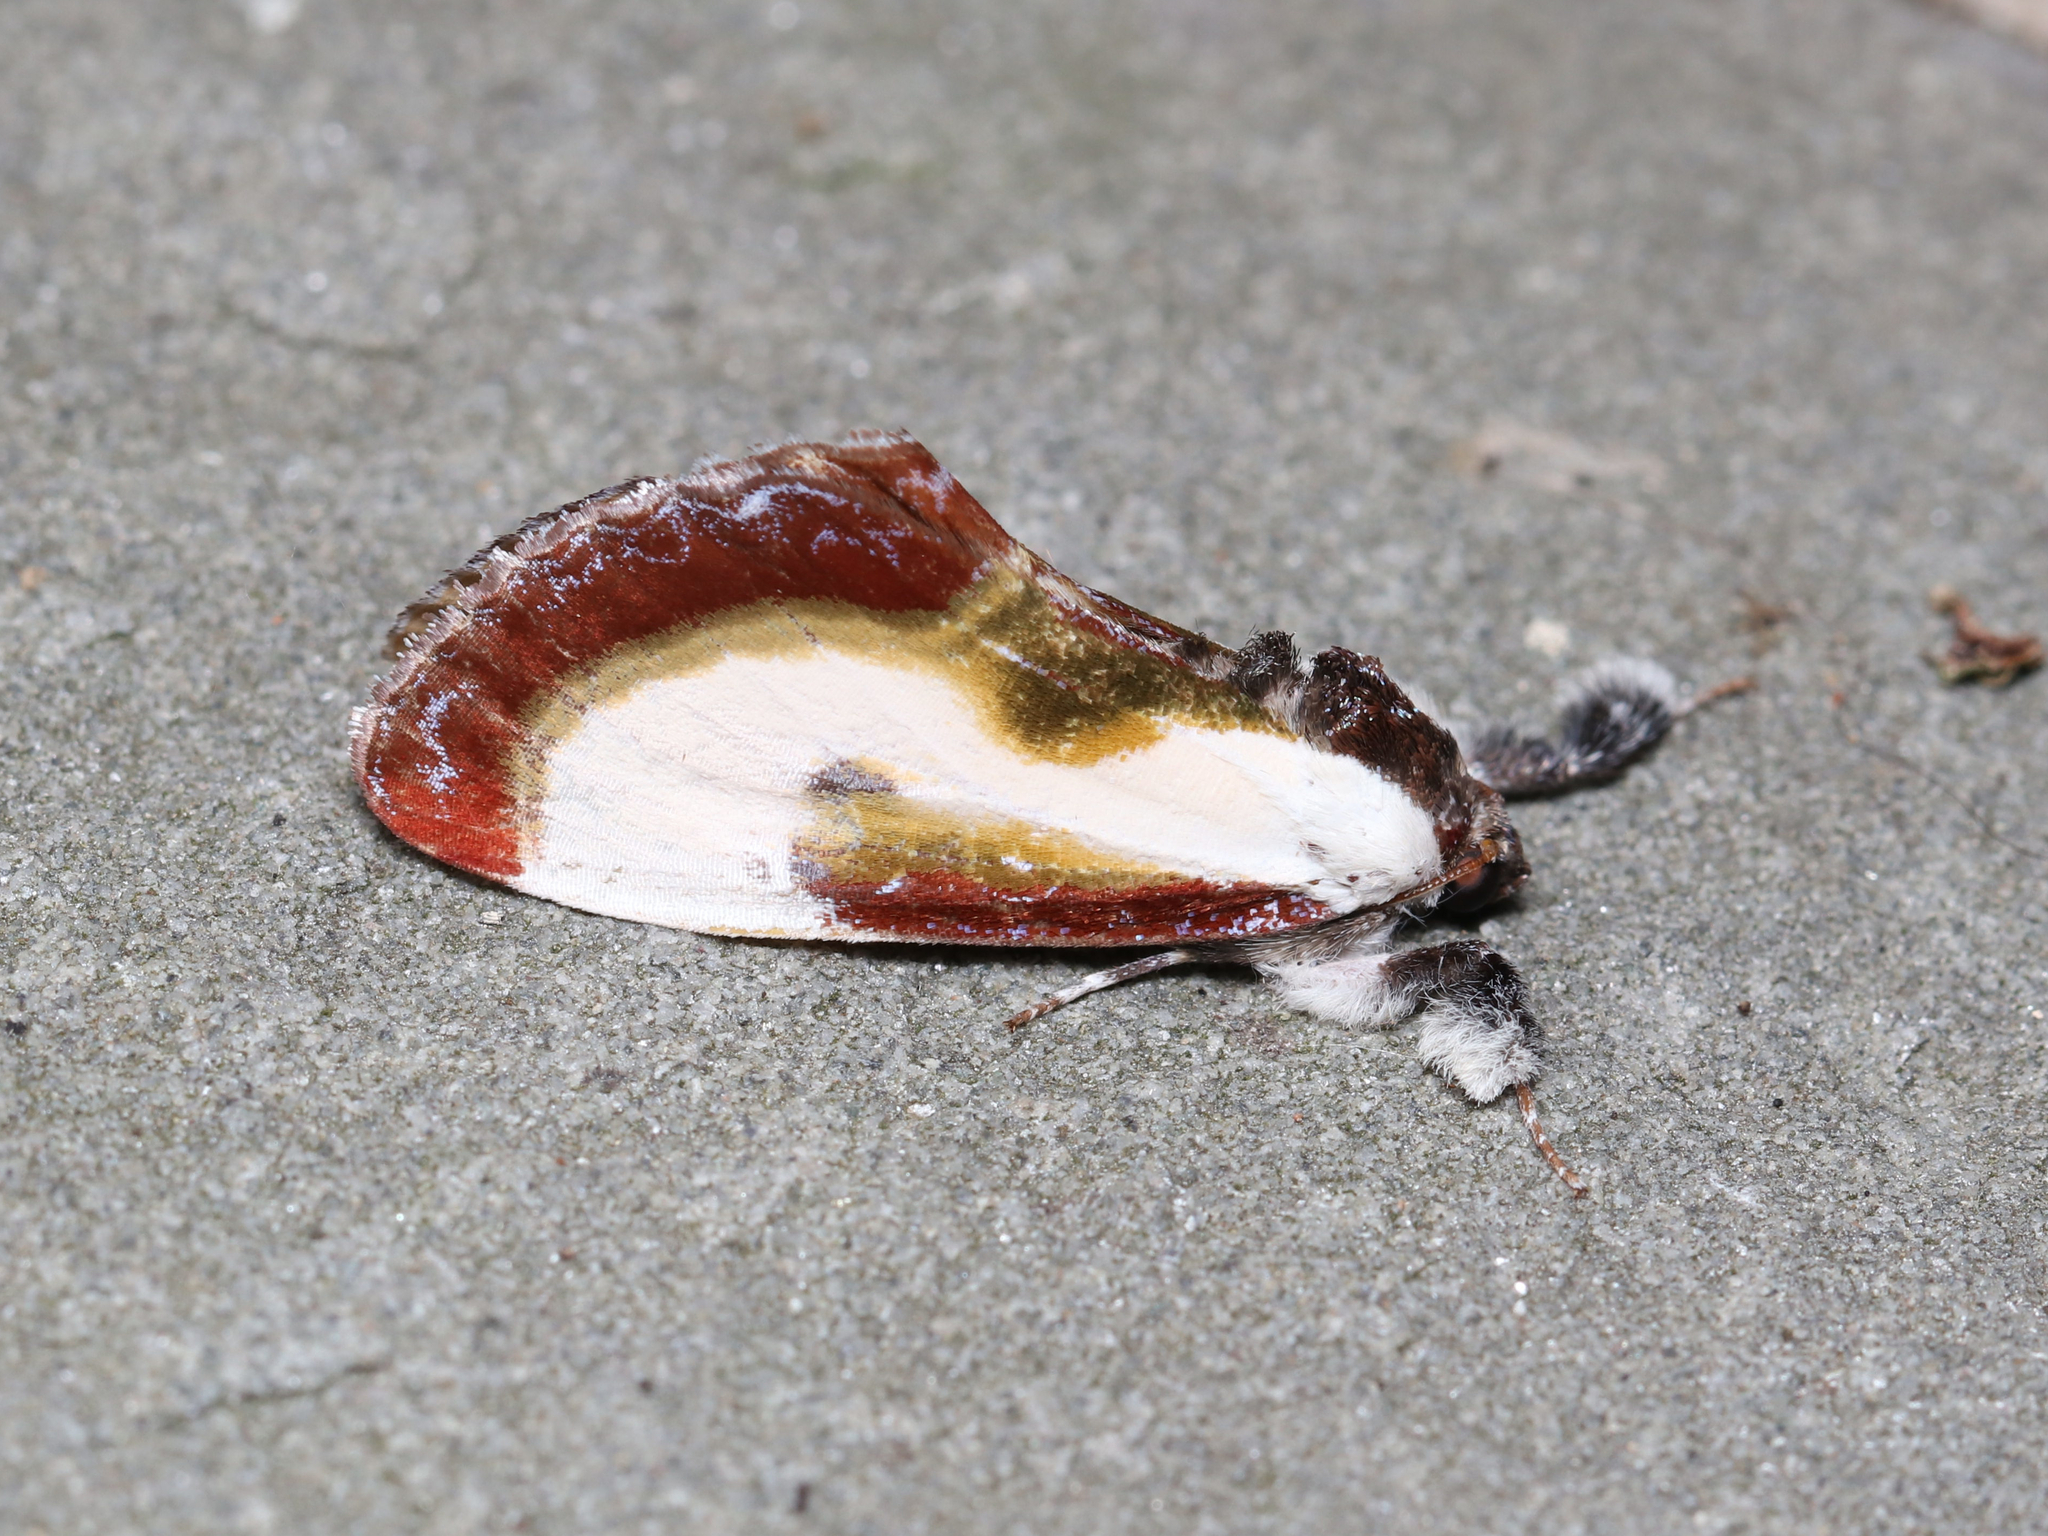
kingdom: Animalia
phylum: Arthropoda
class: Insecta
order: Lepidoptera
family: Noctuidae
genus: Eudryas
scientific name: Eudryas grata
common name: Beautiful wood-nymph
